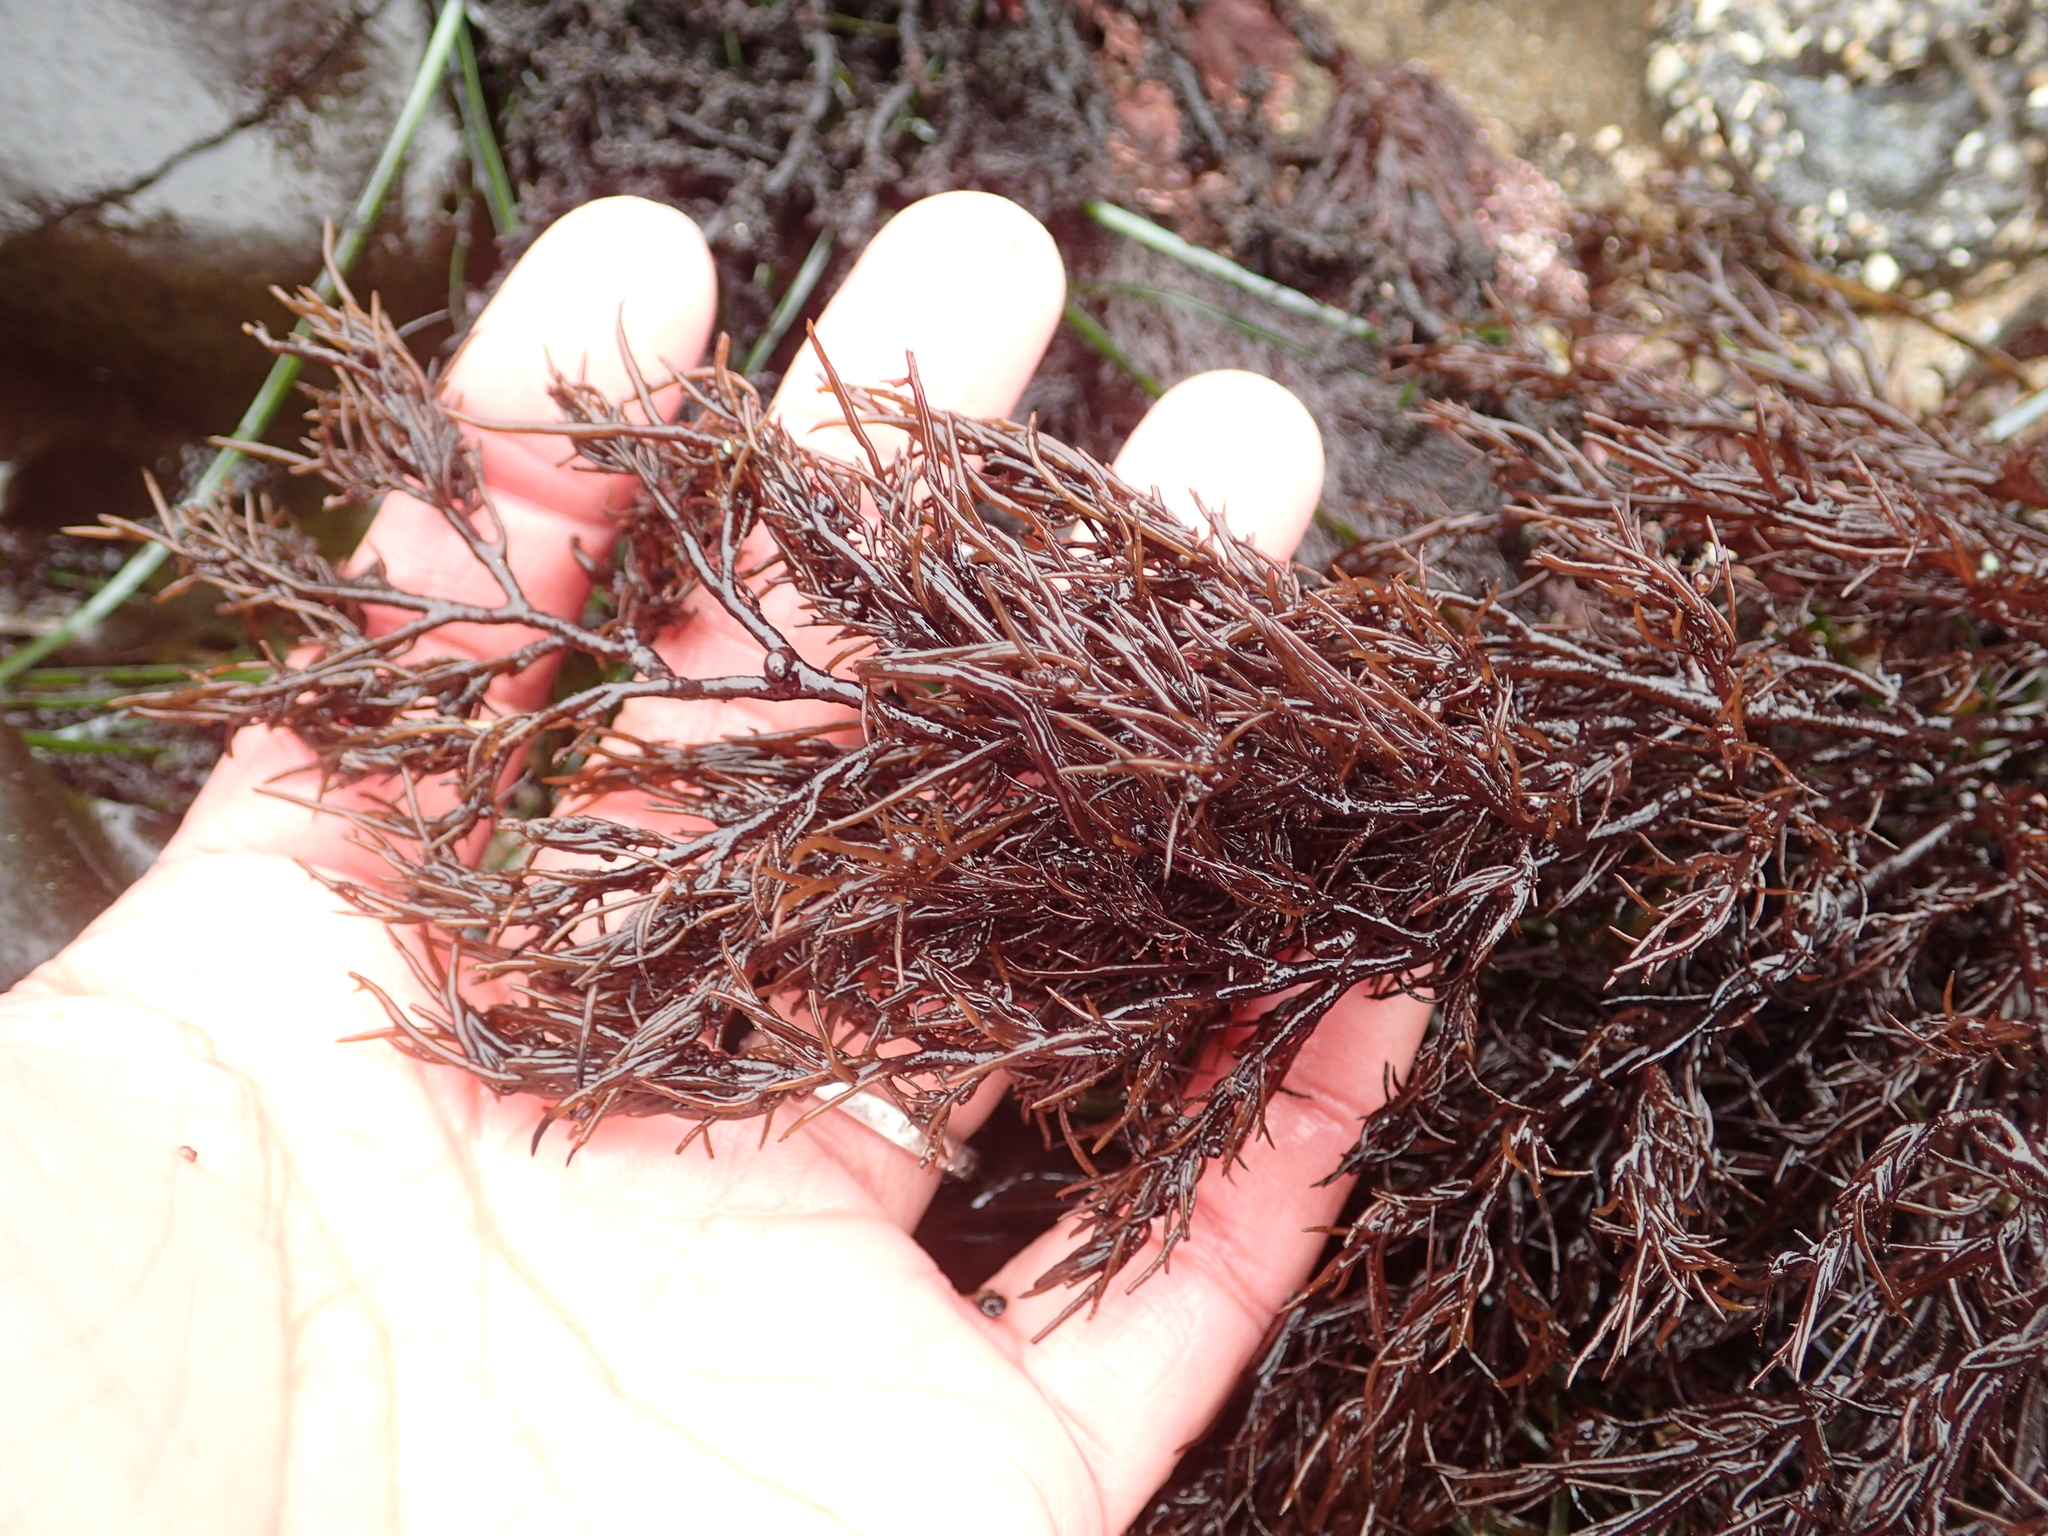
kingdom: Plantae
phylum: Rhodophyta
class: Florideophyceae
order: Ceramiales
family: Rhodomelaceae
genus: Odonthalia
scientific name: Odonthalia floccosa
